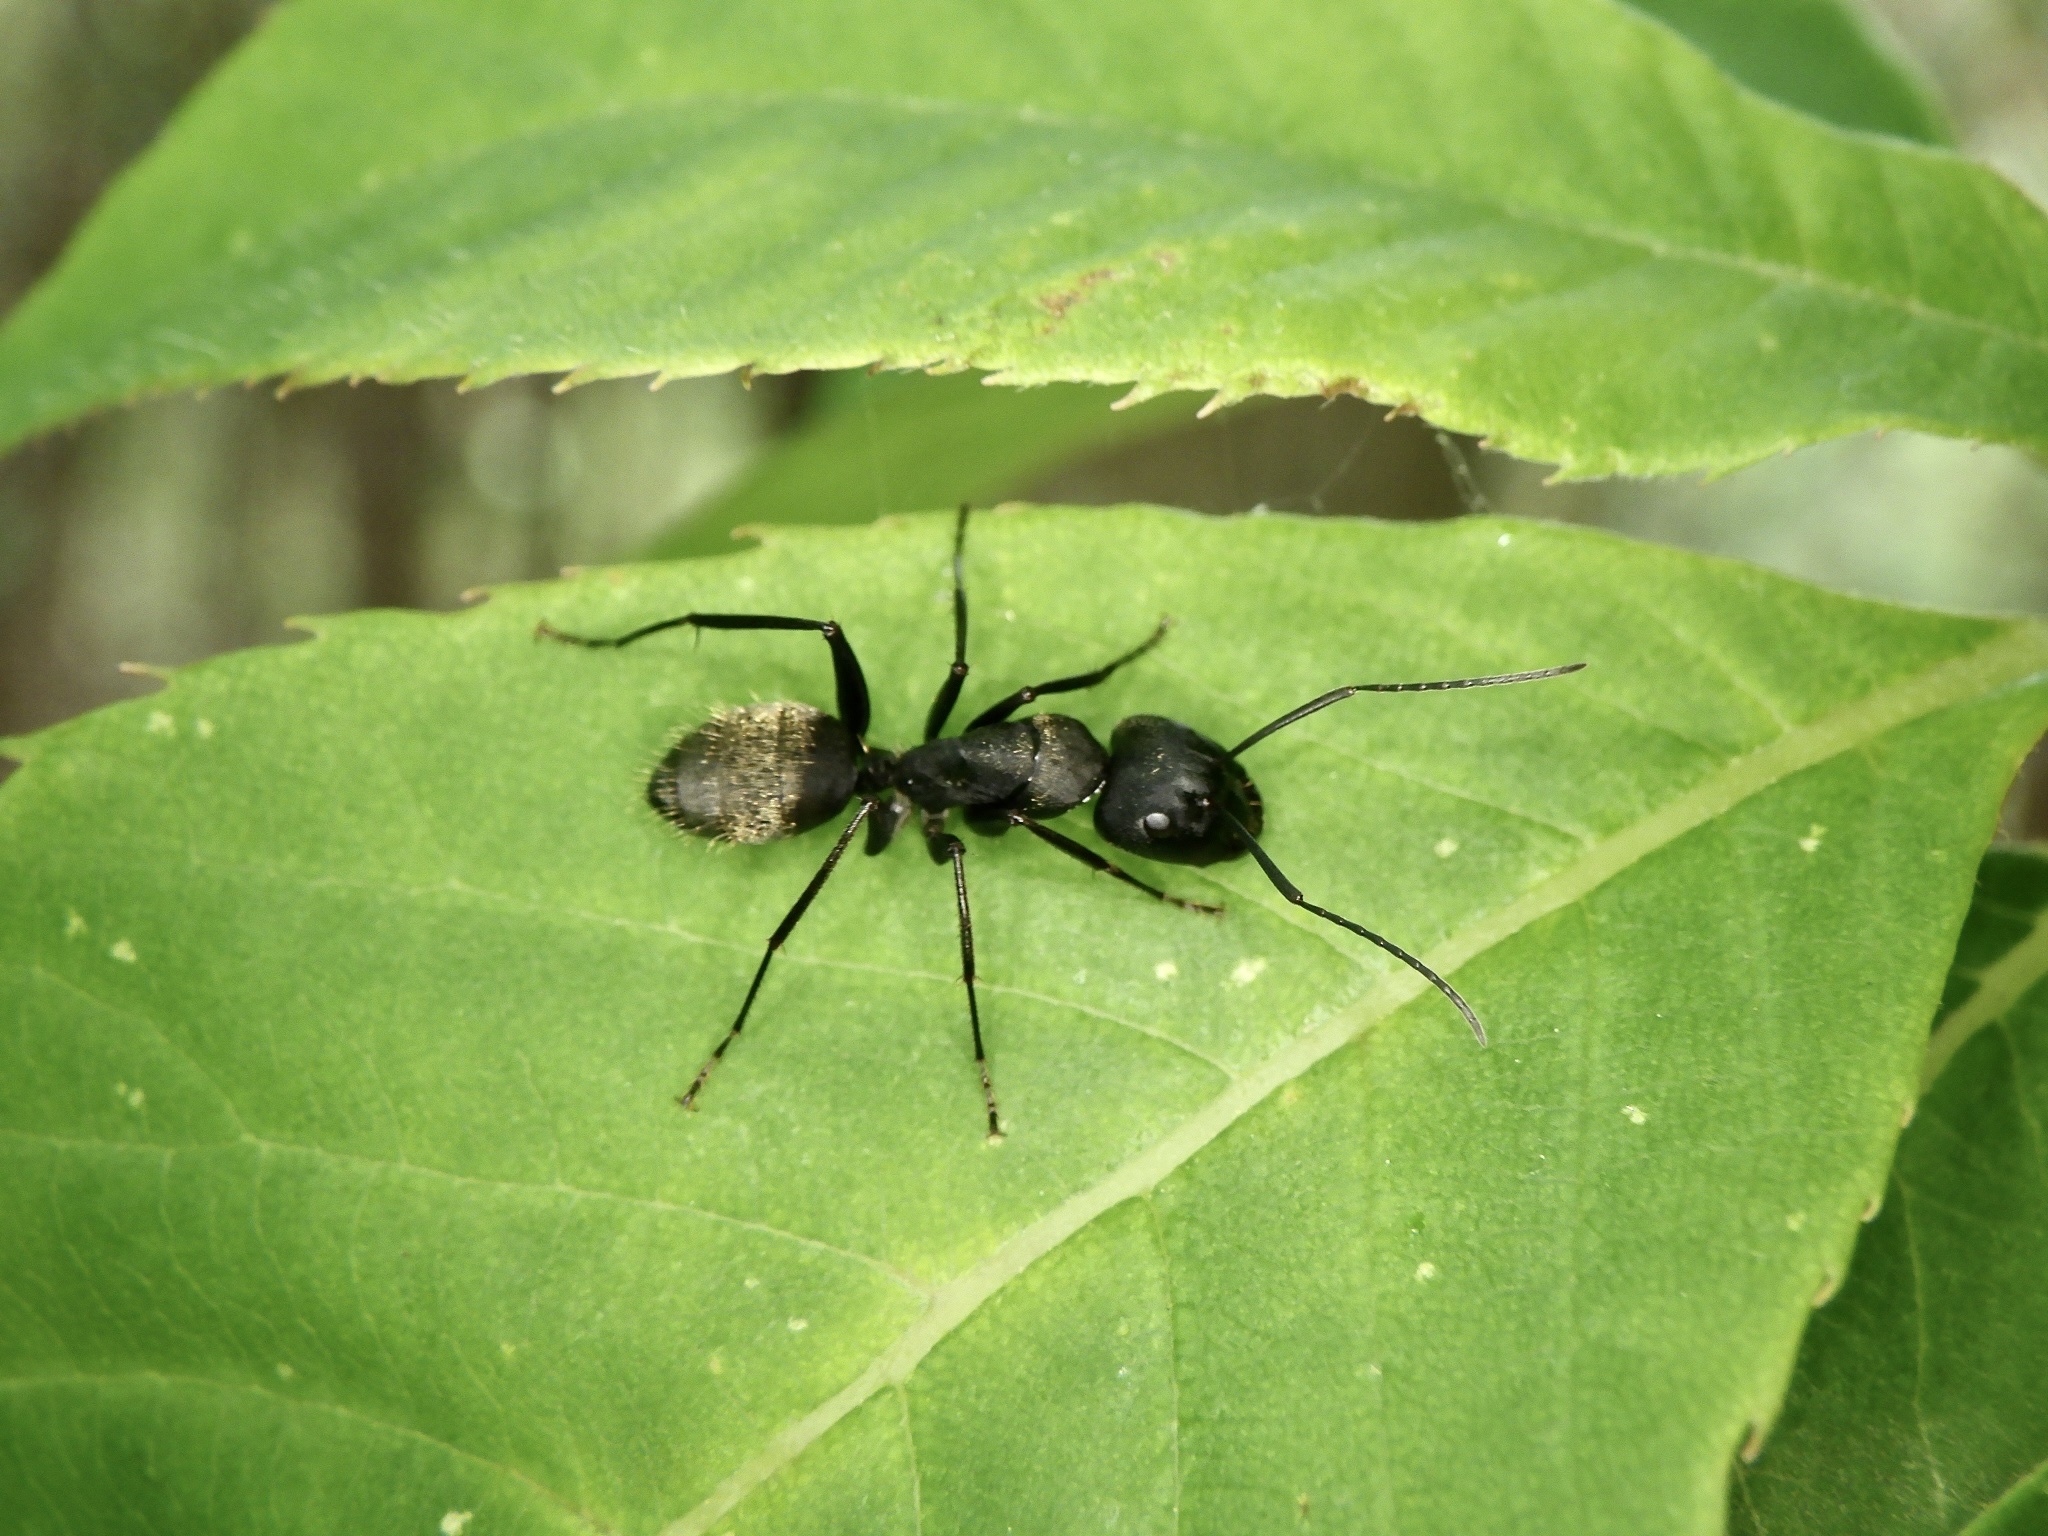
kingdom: Animalia
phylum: Arthropoda
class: Insecta
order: Hymenoptera
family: Formicidae
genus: Camponotus
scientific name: Camponotus japonicus
